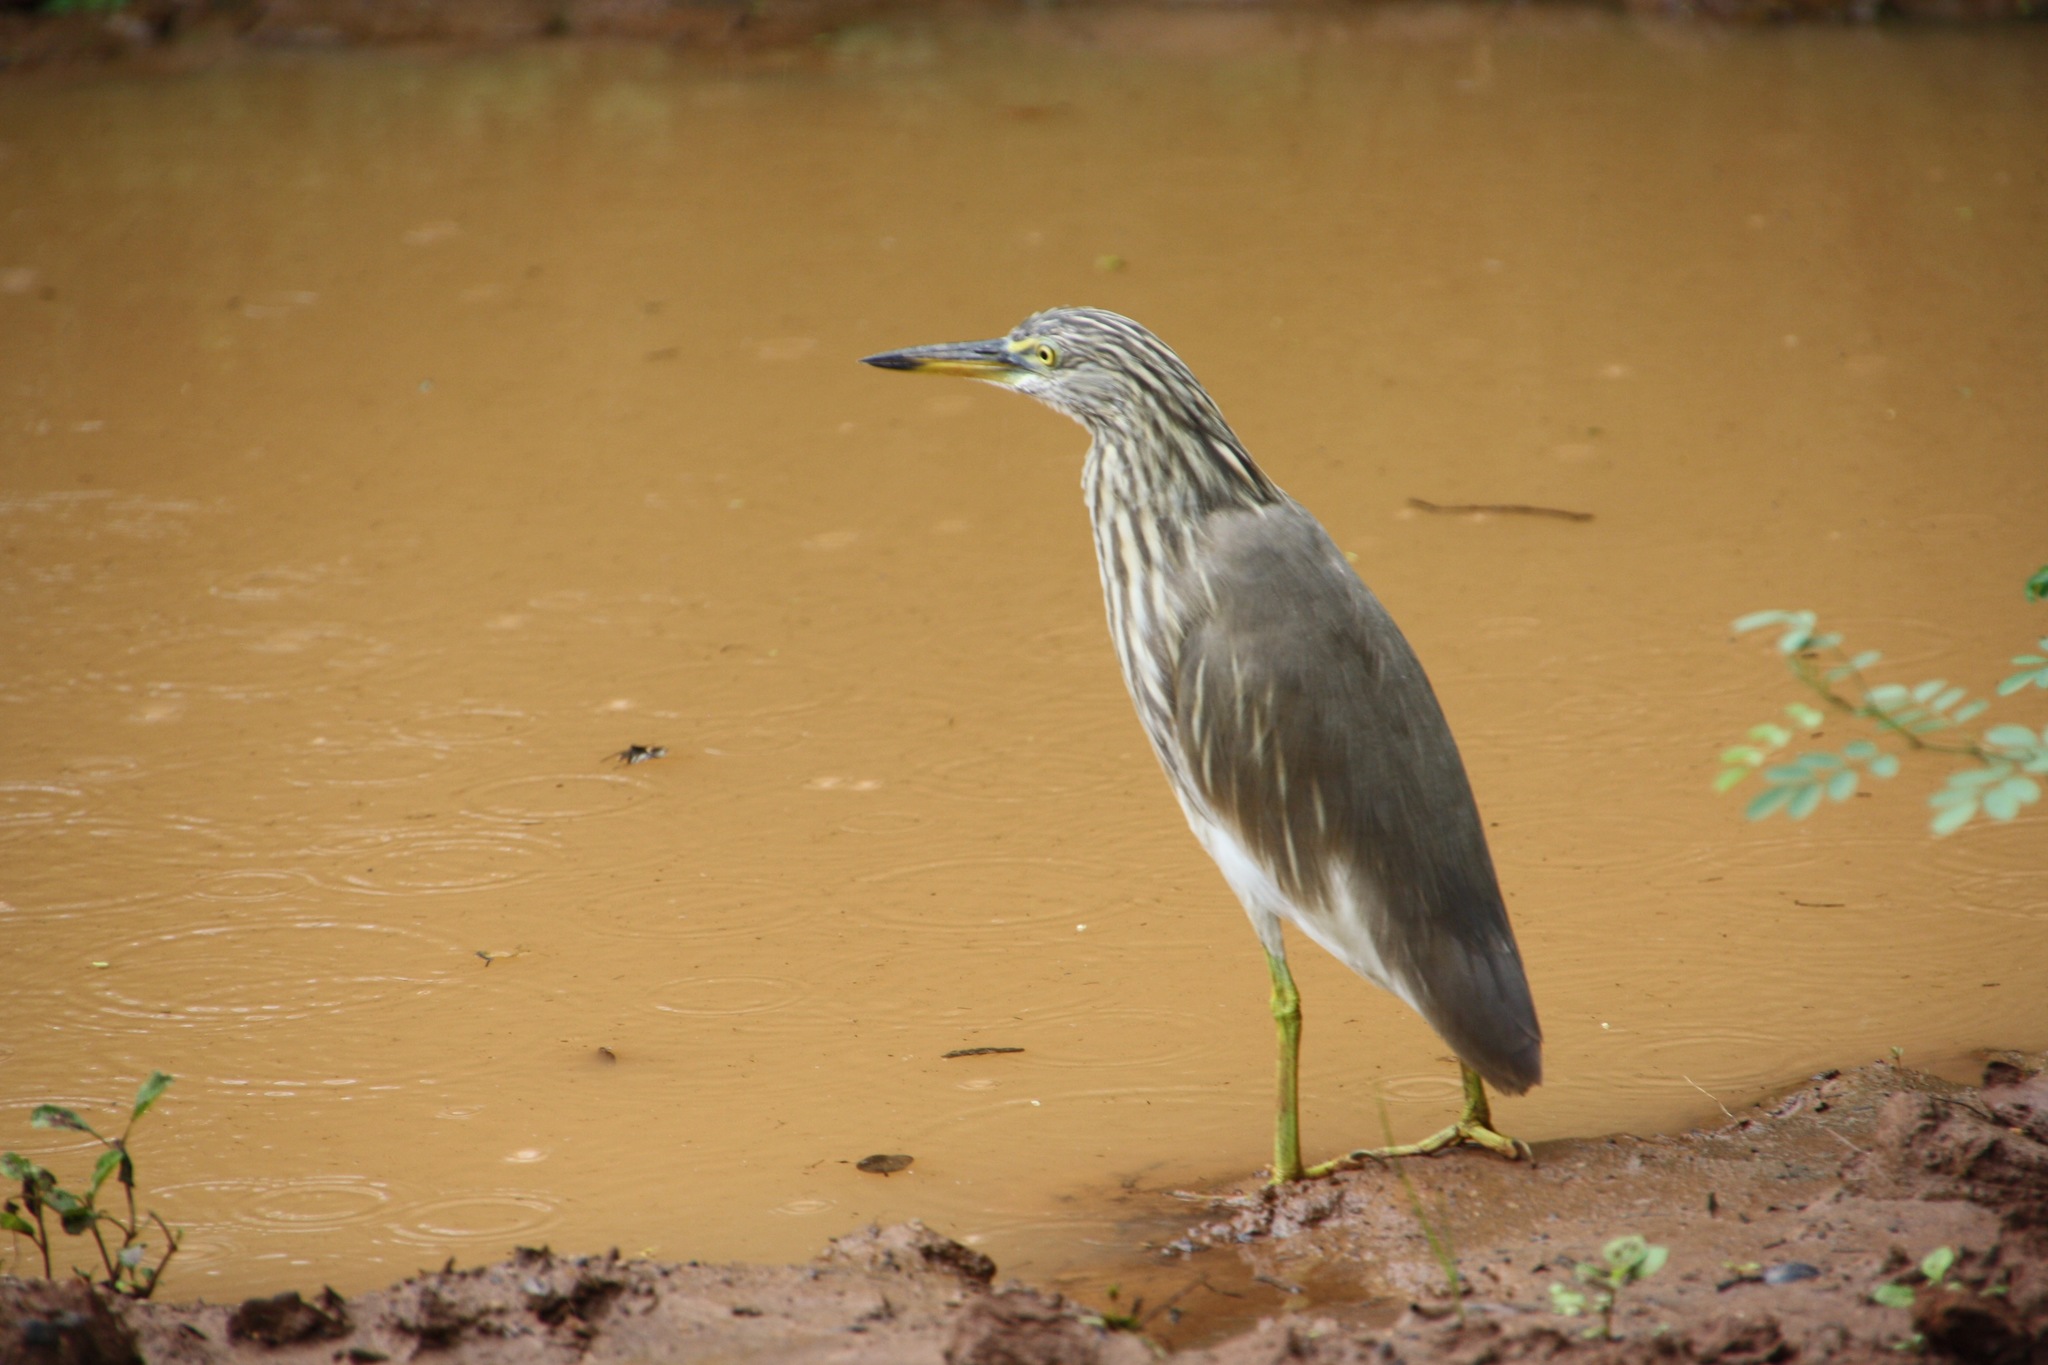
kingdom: Animalia
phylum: Chordata
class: Aves
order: Pelecaniformes
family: Ardeidae
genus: Ardeola
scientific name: Ardeola grayii
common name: Indian pond heron
